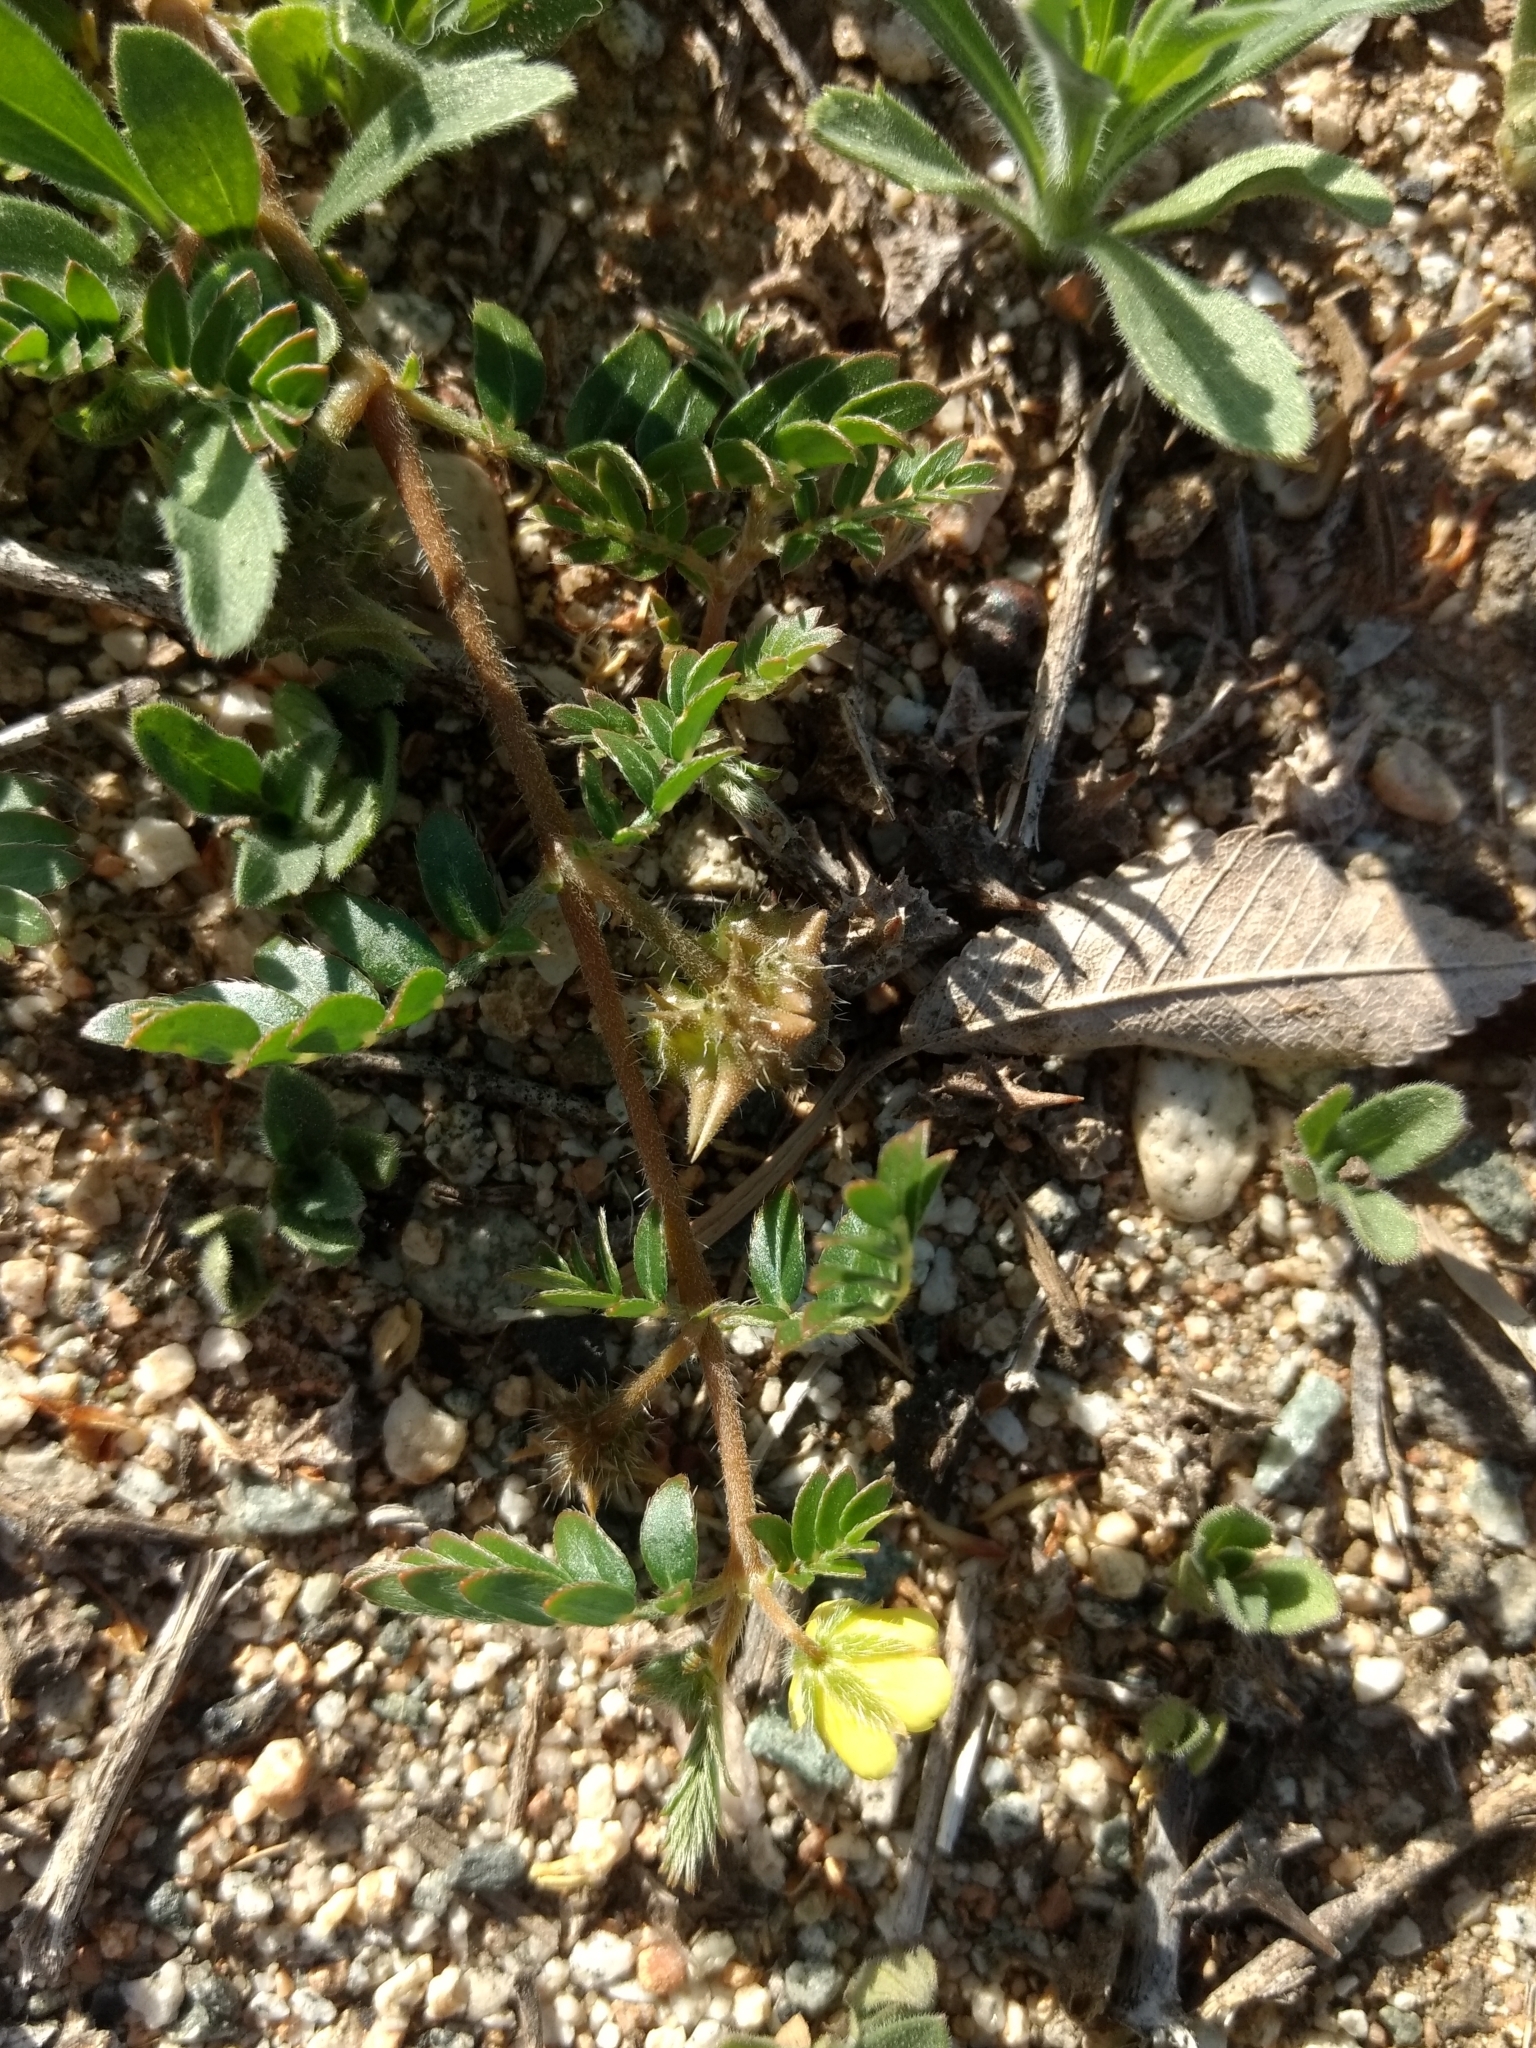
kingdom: Plantae
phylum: Tracheophyta
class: Magnoliopsida
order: Zygophyllales
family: Zygophyllaceae
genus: Tribulus
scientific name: Tribulus terrestris
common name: Puncturevine
